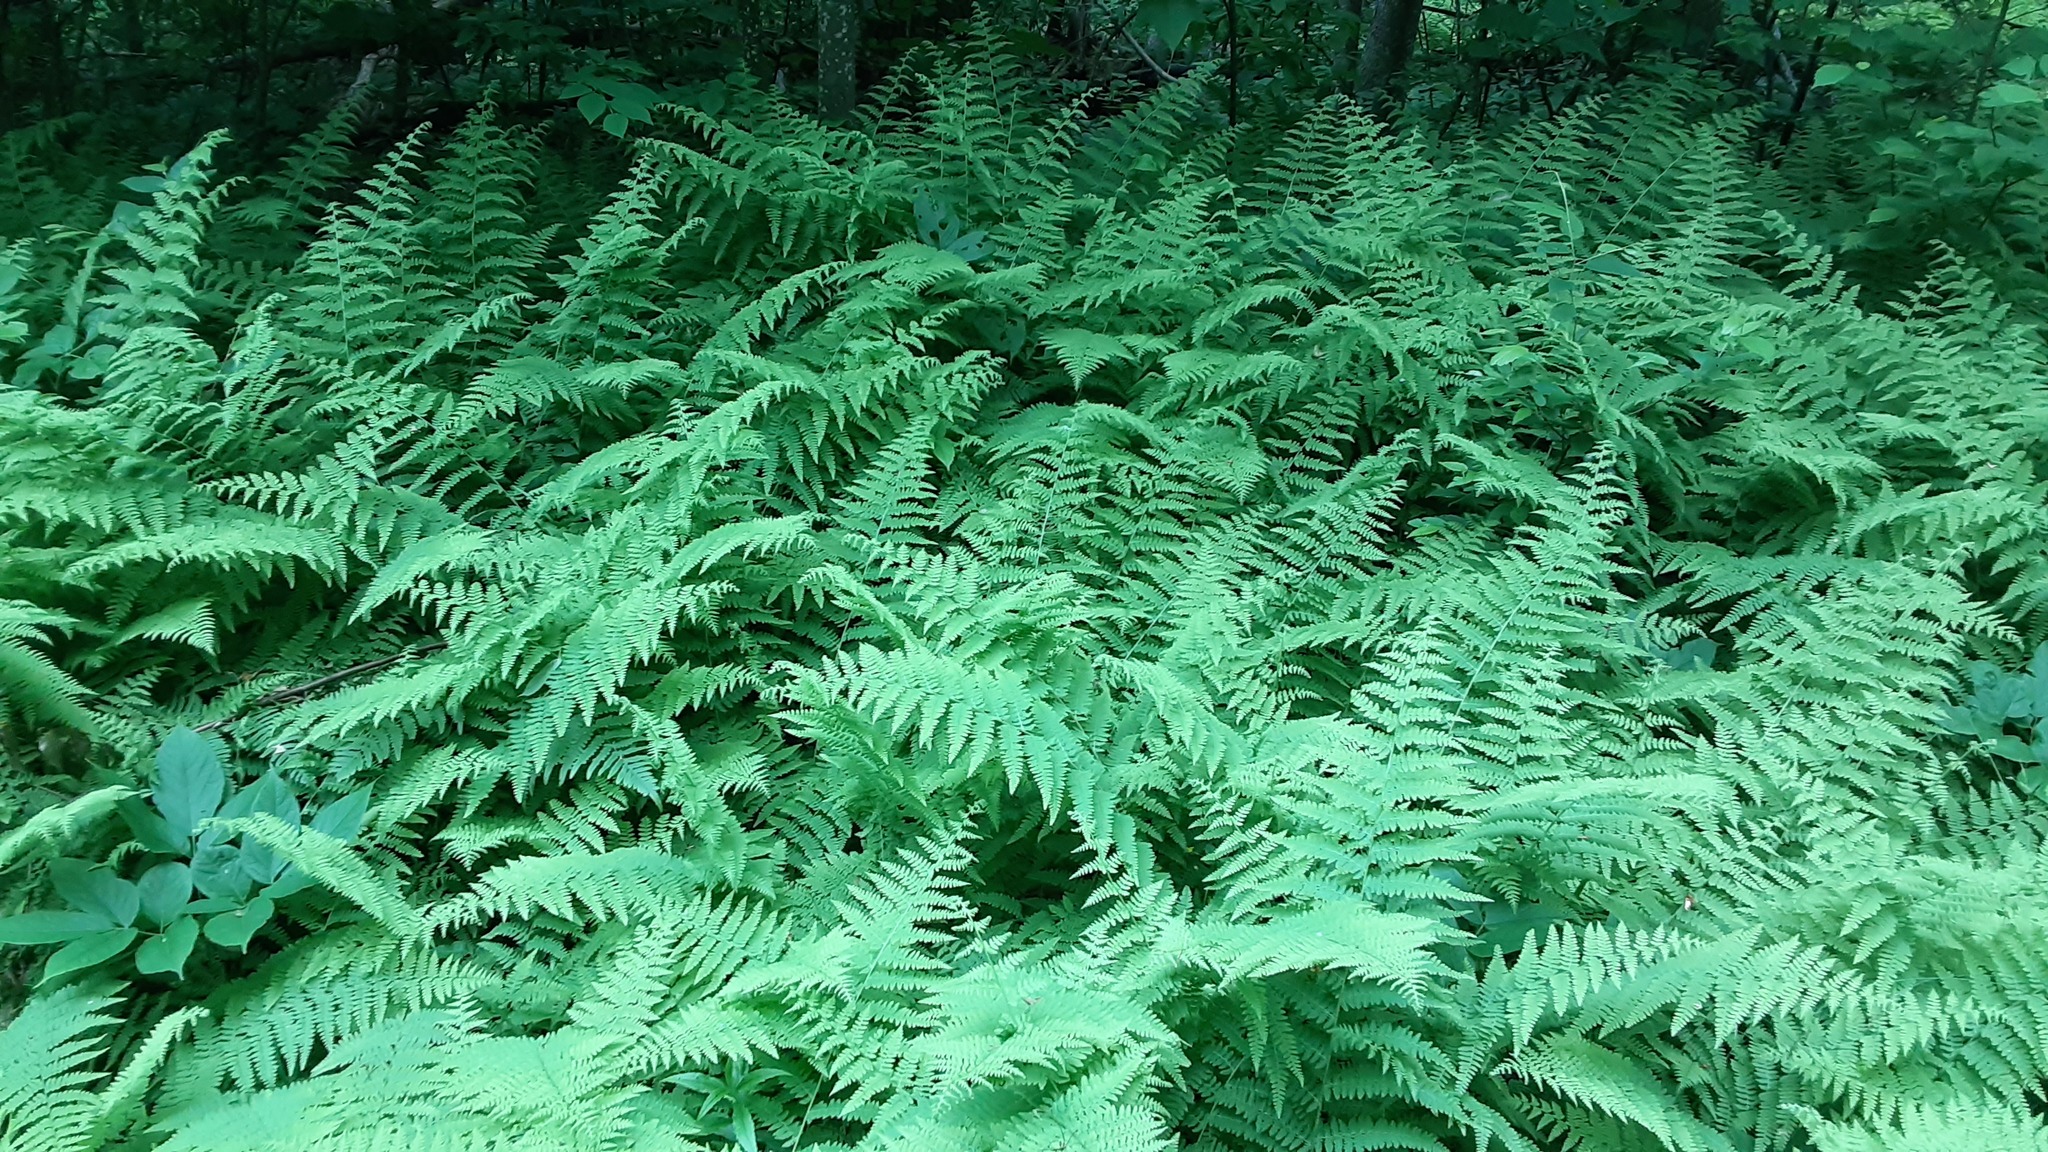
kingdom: Plantae
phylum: Tracheophyta
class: Polypodiopsida
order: Polypodiales
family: Dennstaedtiaceae
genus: Sitobolium
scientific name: Sitobolium punctilobum
